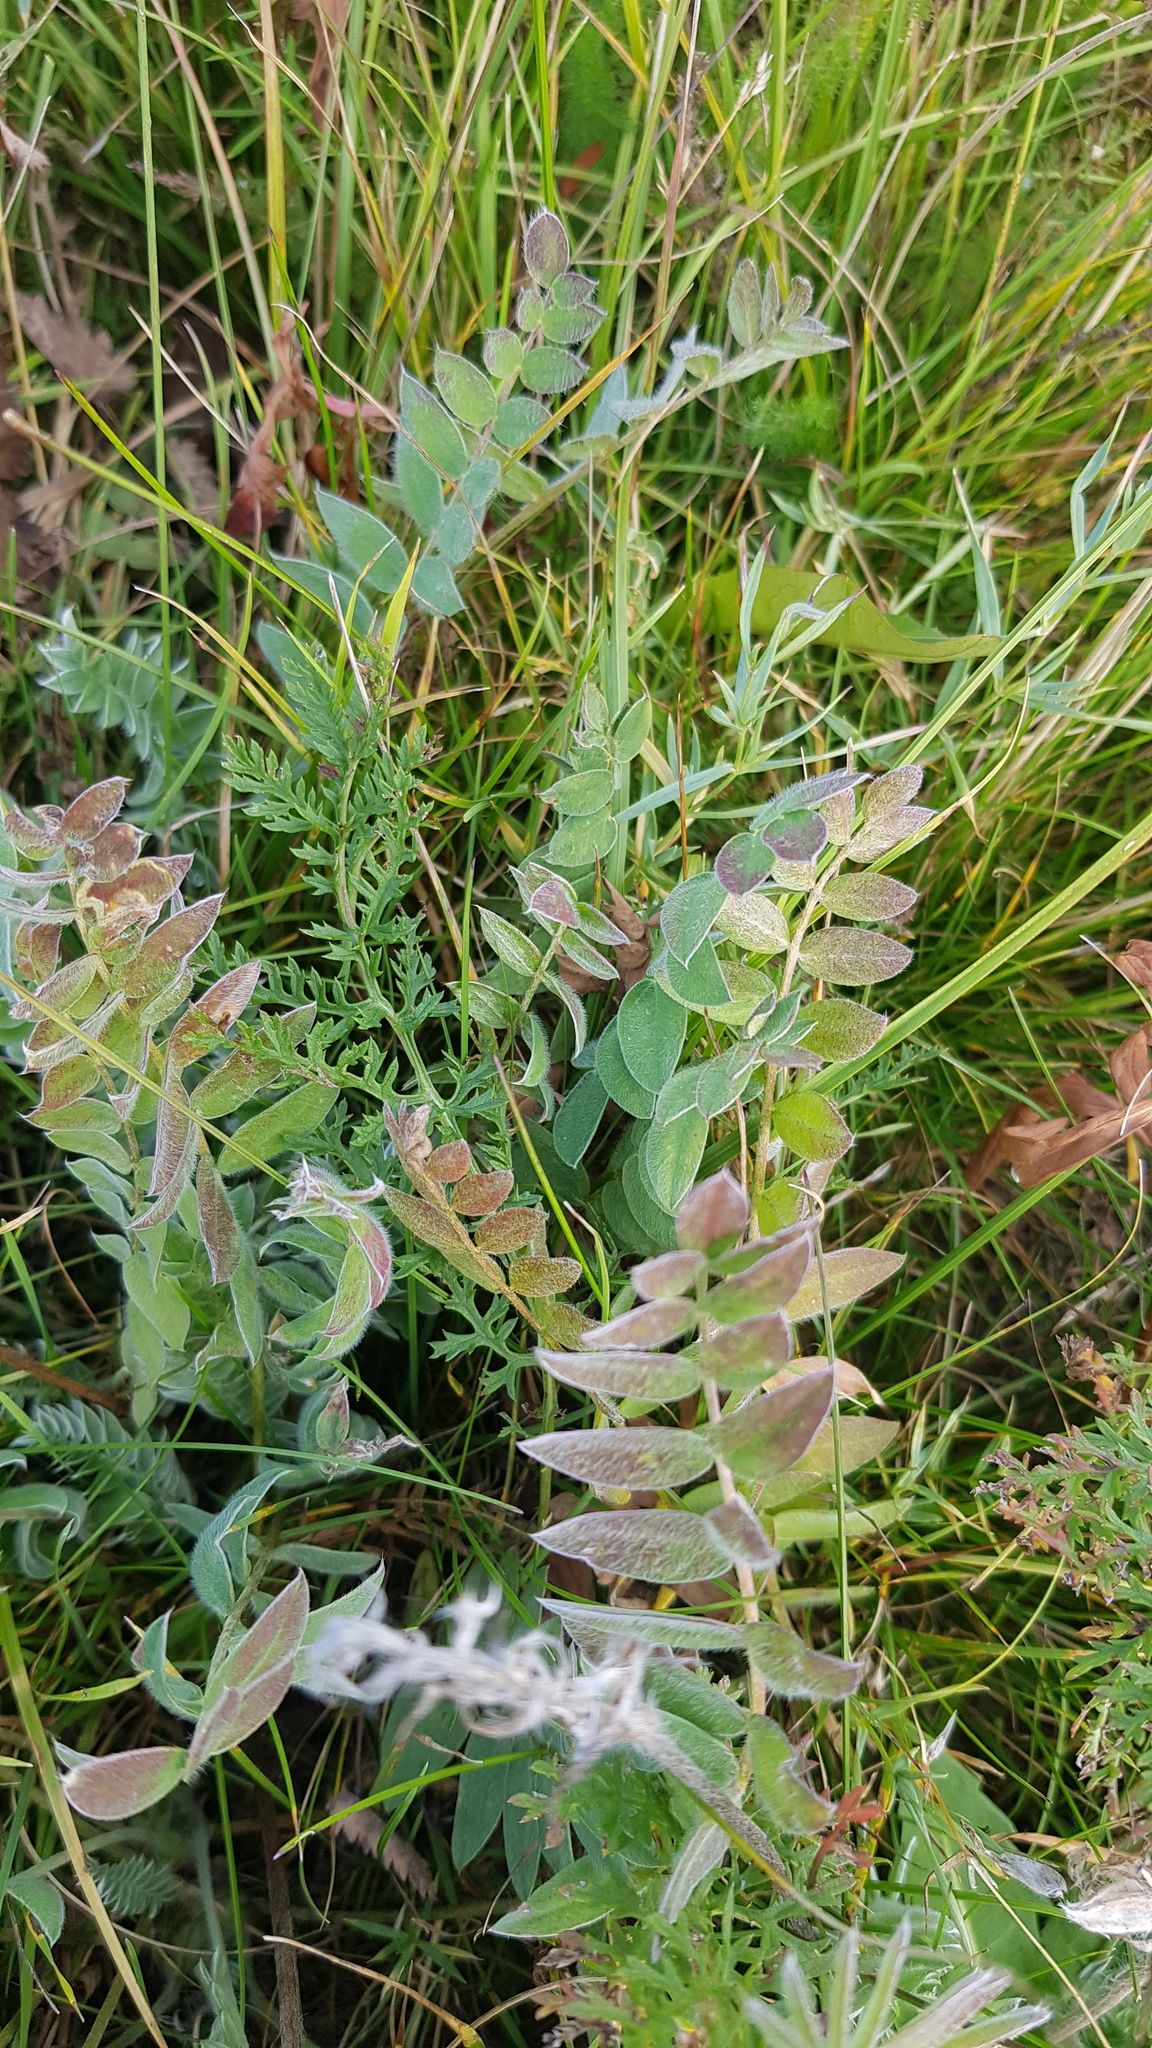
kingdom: Plantae
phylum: Tracheophyta
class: Magnoliopsida
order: Fabales
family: Fabaceae
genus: Oxytropis
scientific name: Oxytropis strobilacea
